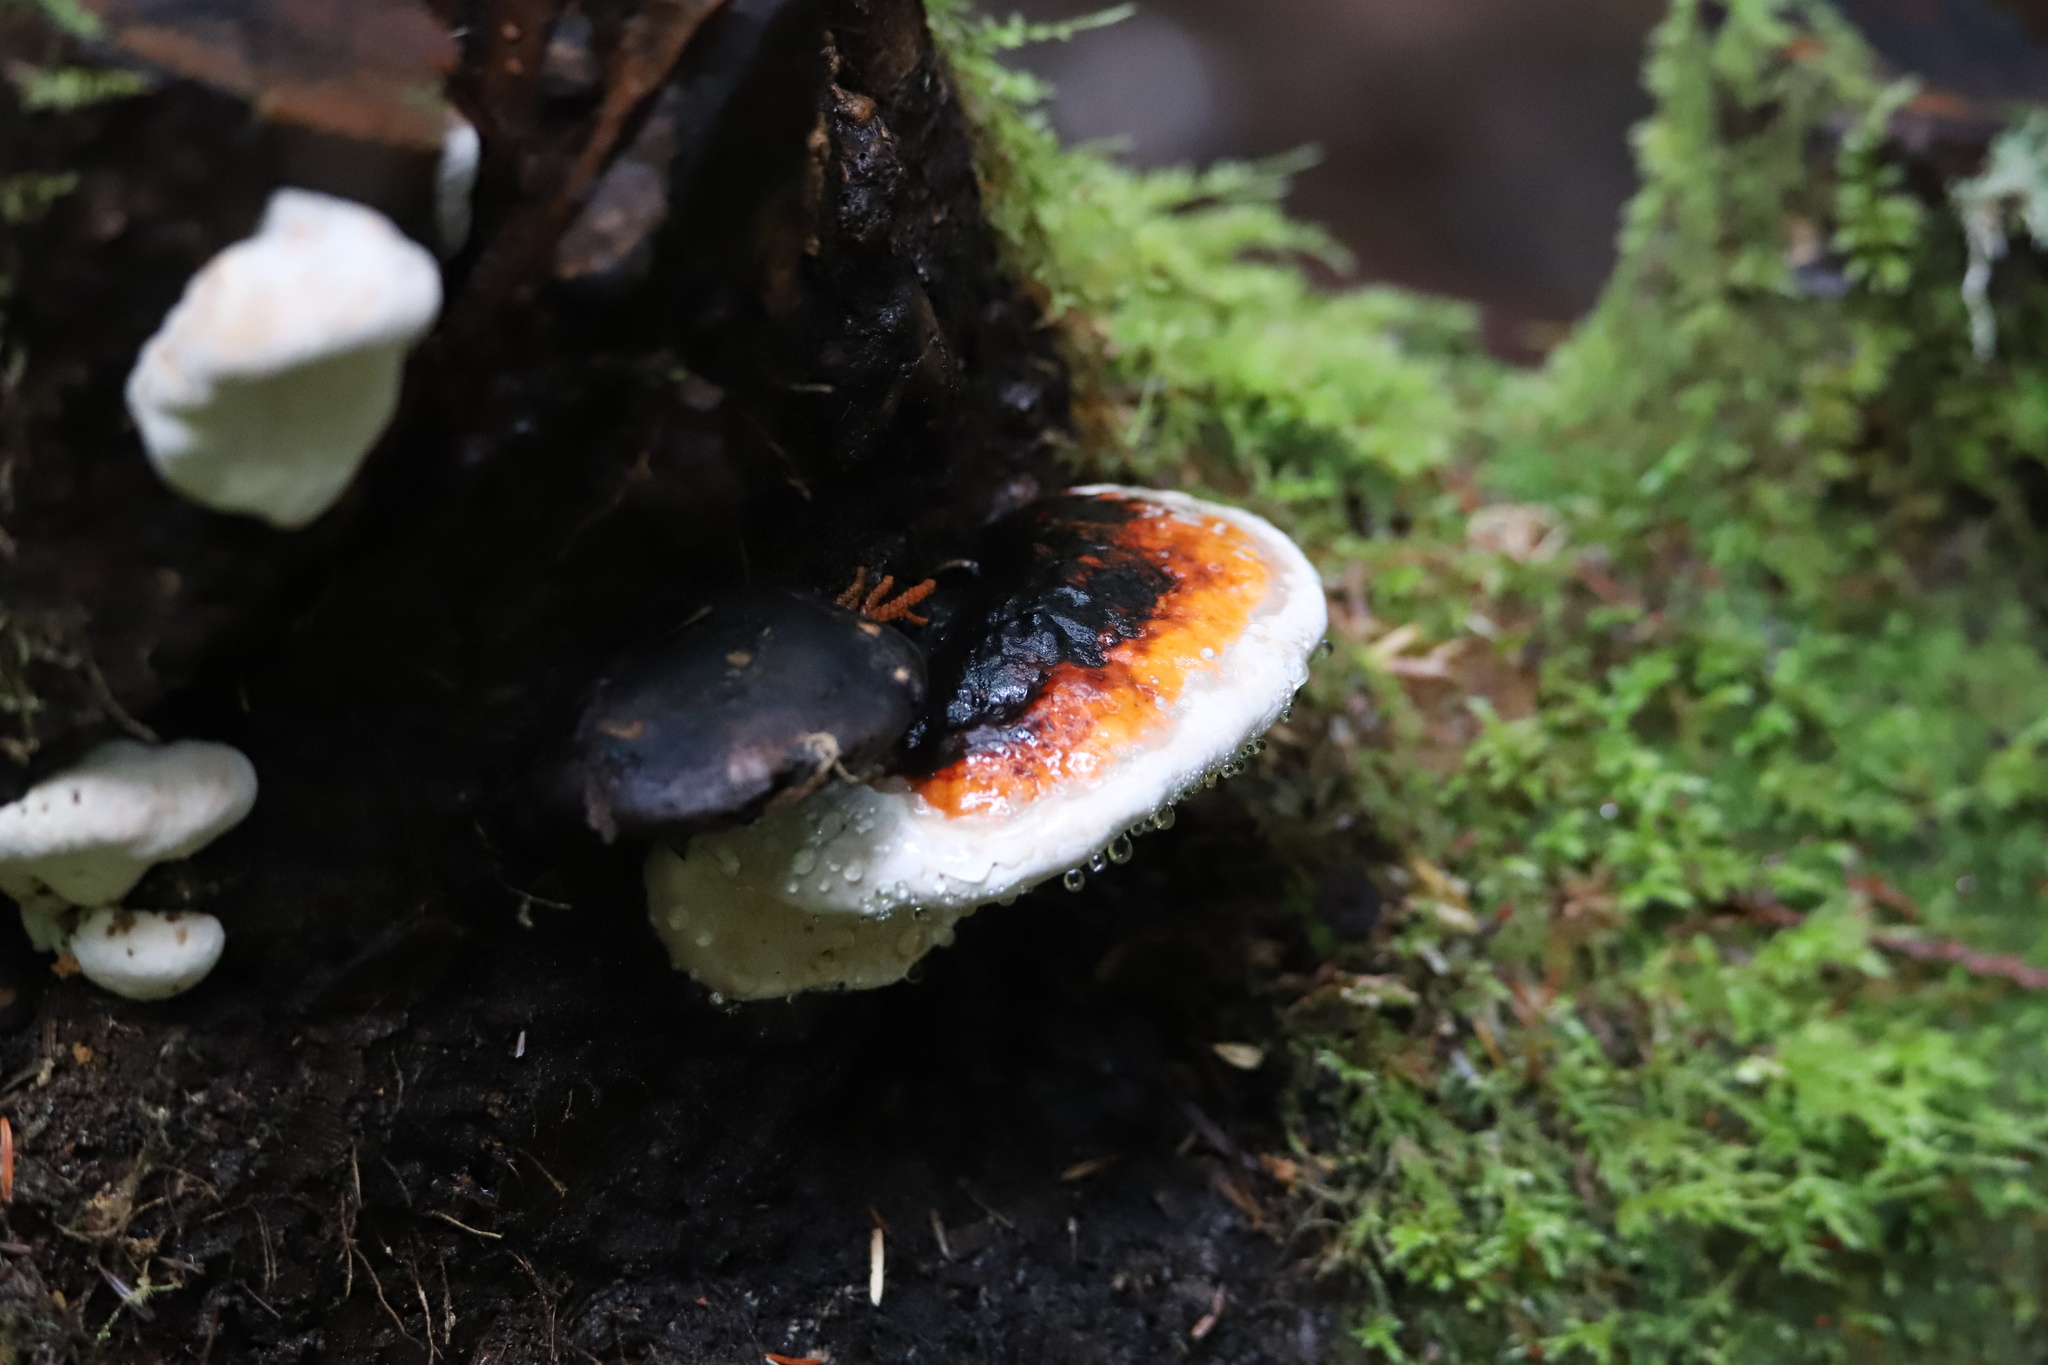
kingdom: Fungi
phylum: Basidiomycota
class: Agaricomycetes
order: Polyporales
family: Fomitopsidaceae
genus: Fomitopsis
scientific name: Fomitopsis mounceae
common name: Northern red belt
